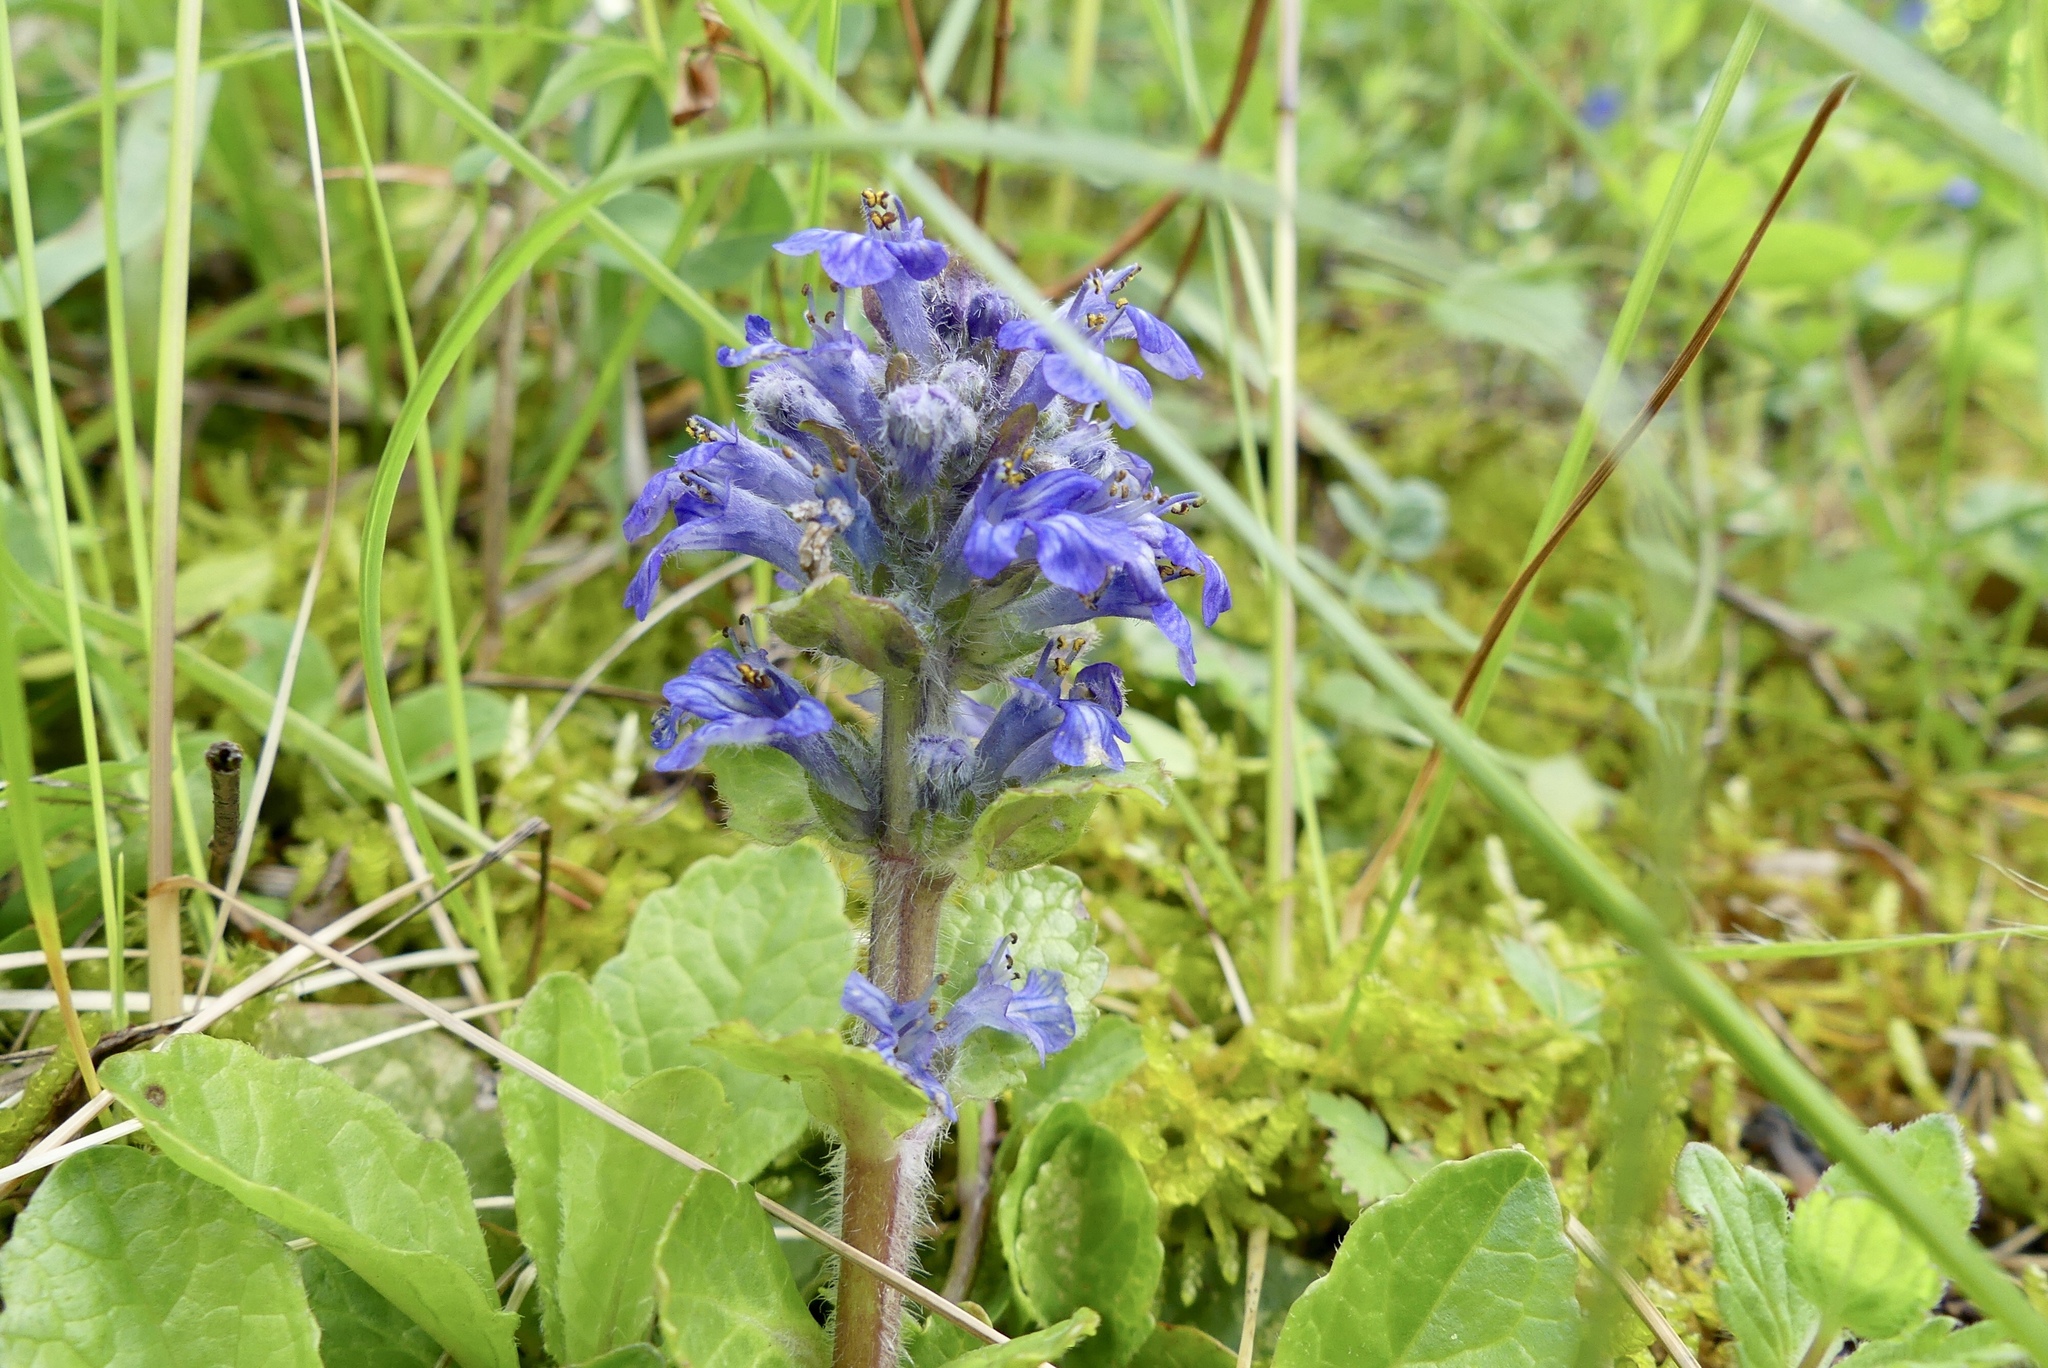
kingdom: Plantae
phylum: Tracheophyta
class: Magnoliopsida
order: Lamiales
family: Lamiaceae
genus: Ajuga
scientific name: Ajuga reptans
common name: Bugle
